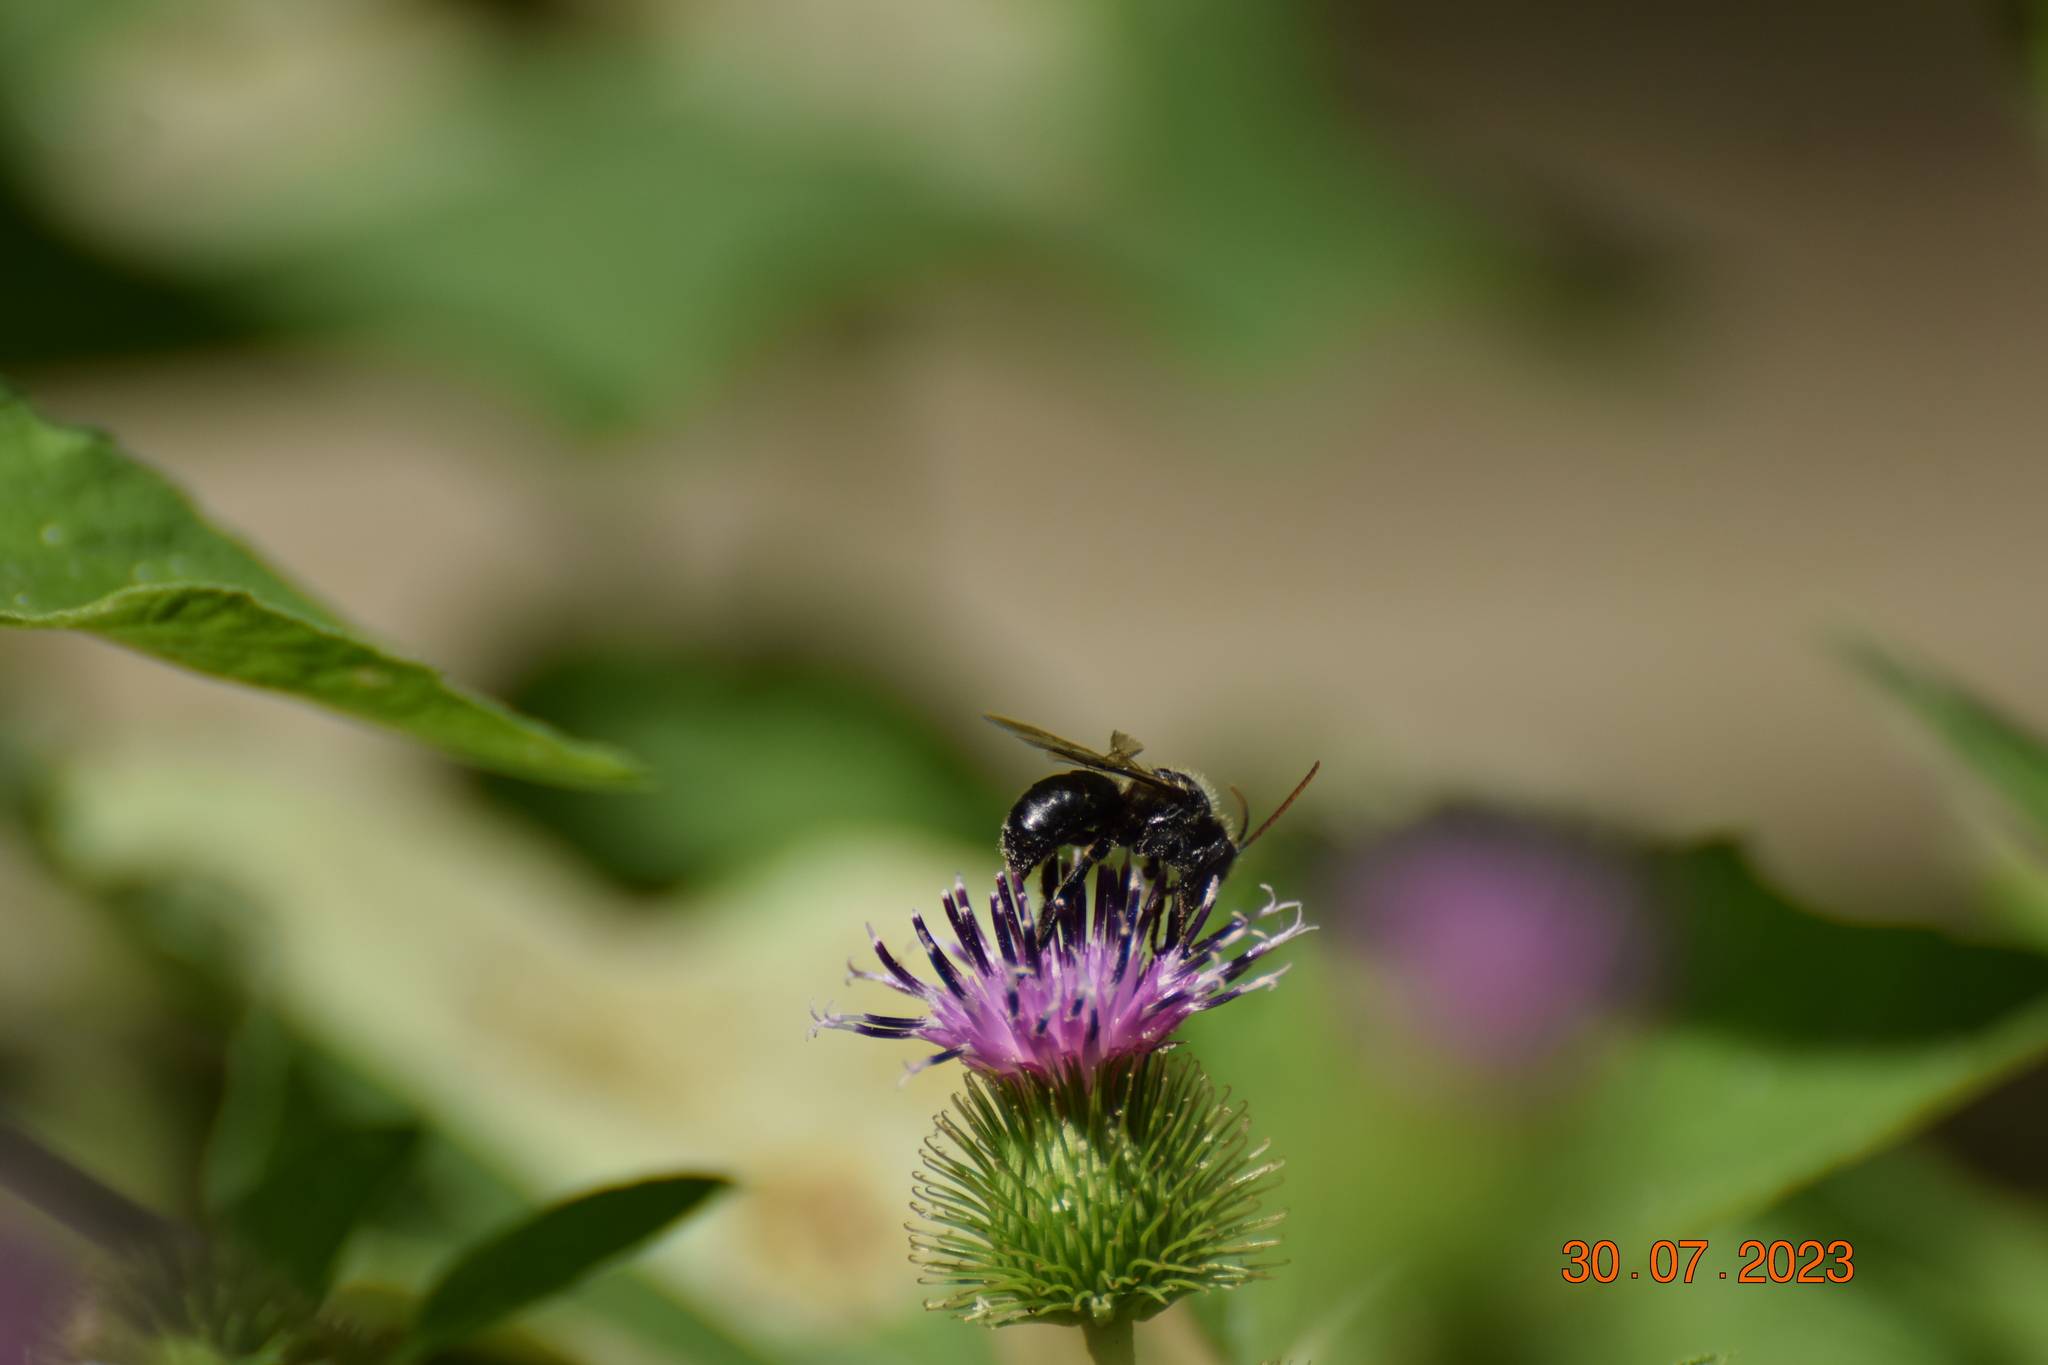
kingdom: Animalia
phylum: Arthropoda
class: Insecta
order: Hymenoptera
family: Apidae
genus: Melissodes
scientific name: Melissodes desponsus
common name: Thistle long-horned bee
